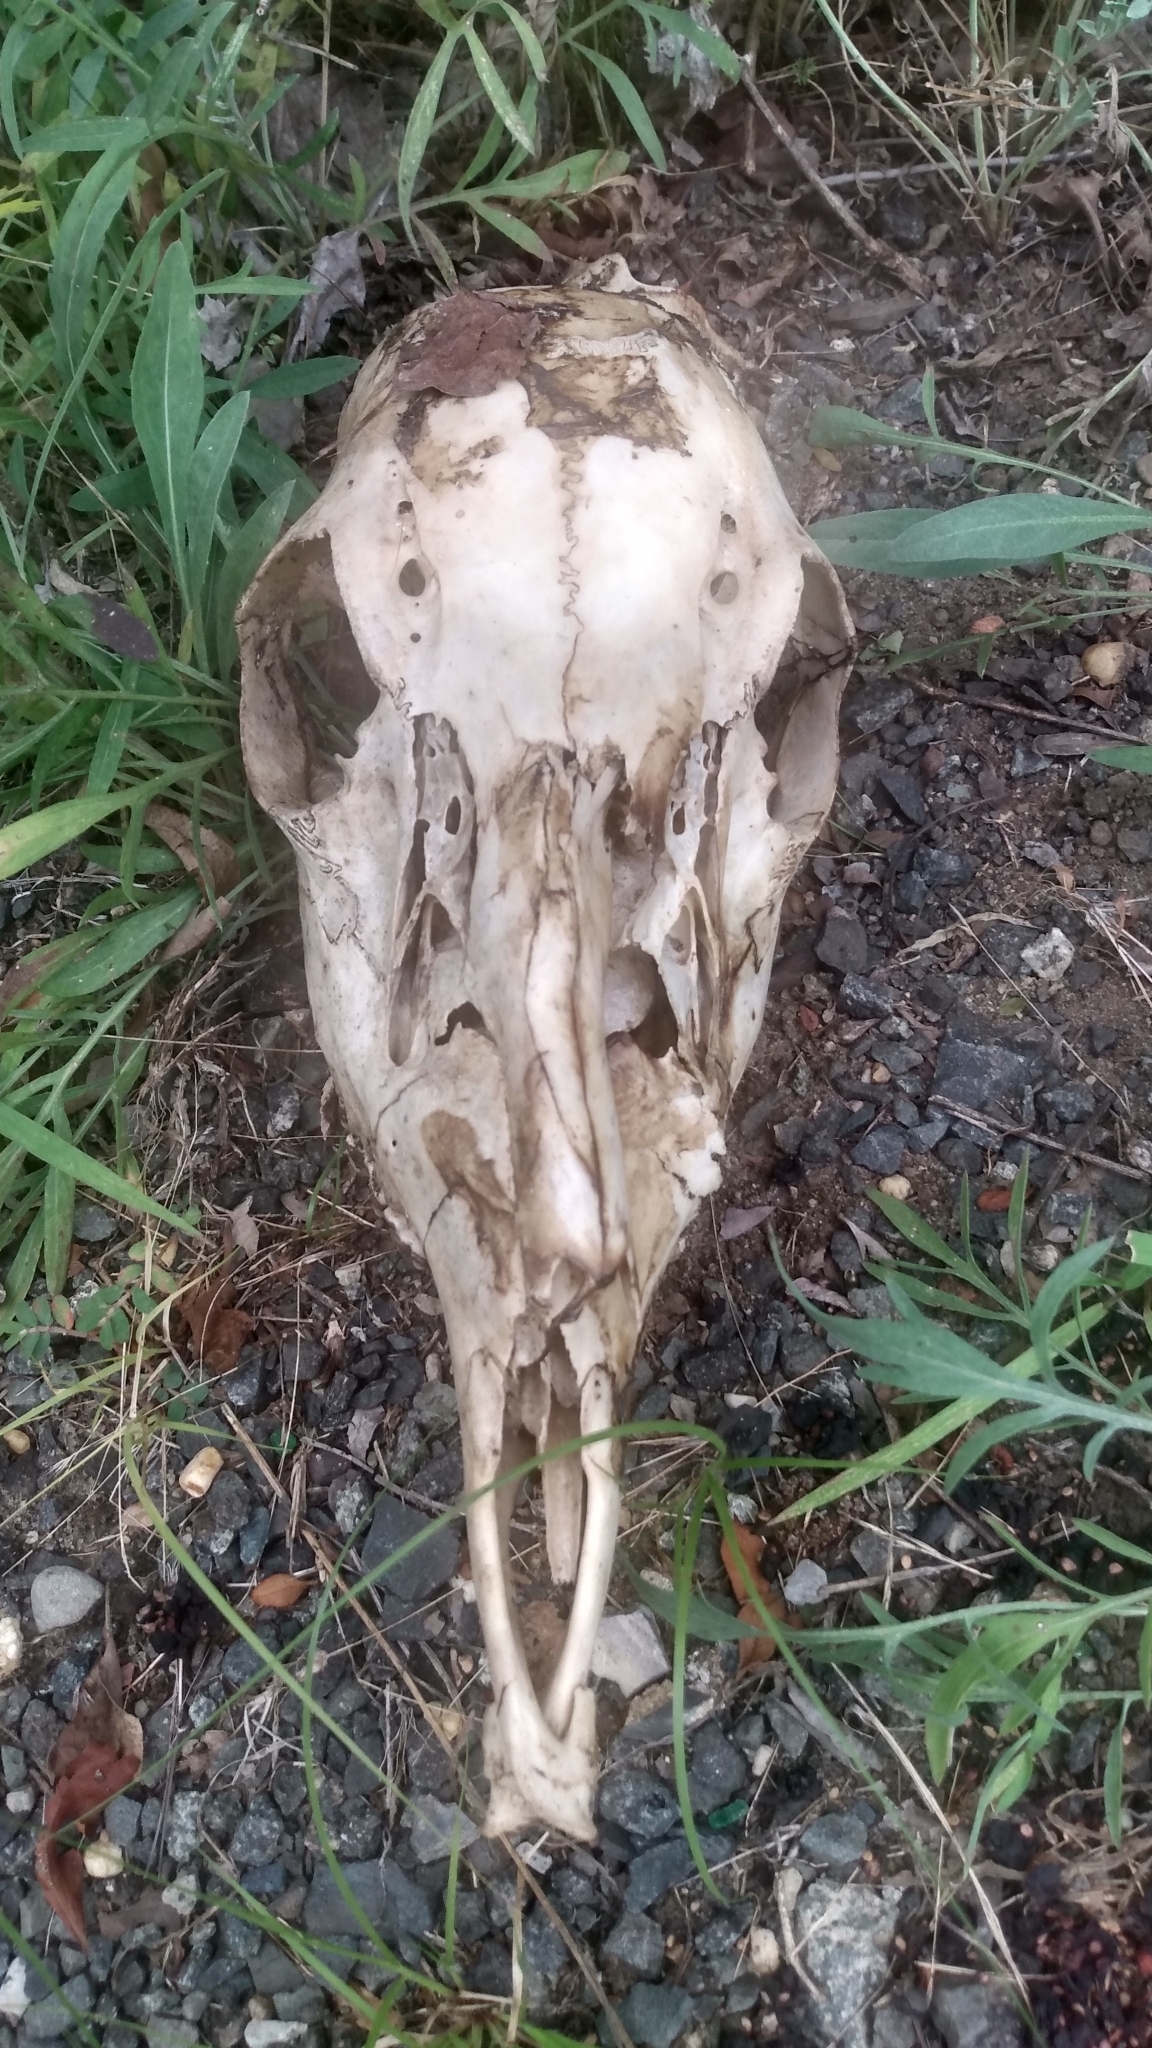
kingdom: Animalia
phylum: Chordata
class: Mammalia
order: Artiodactyla
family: Cervidae
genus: Odocoileus
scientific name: Odocoileus virginianus
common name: White-tailed deer
